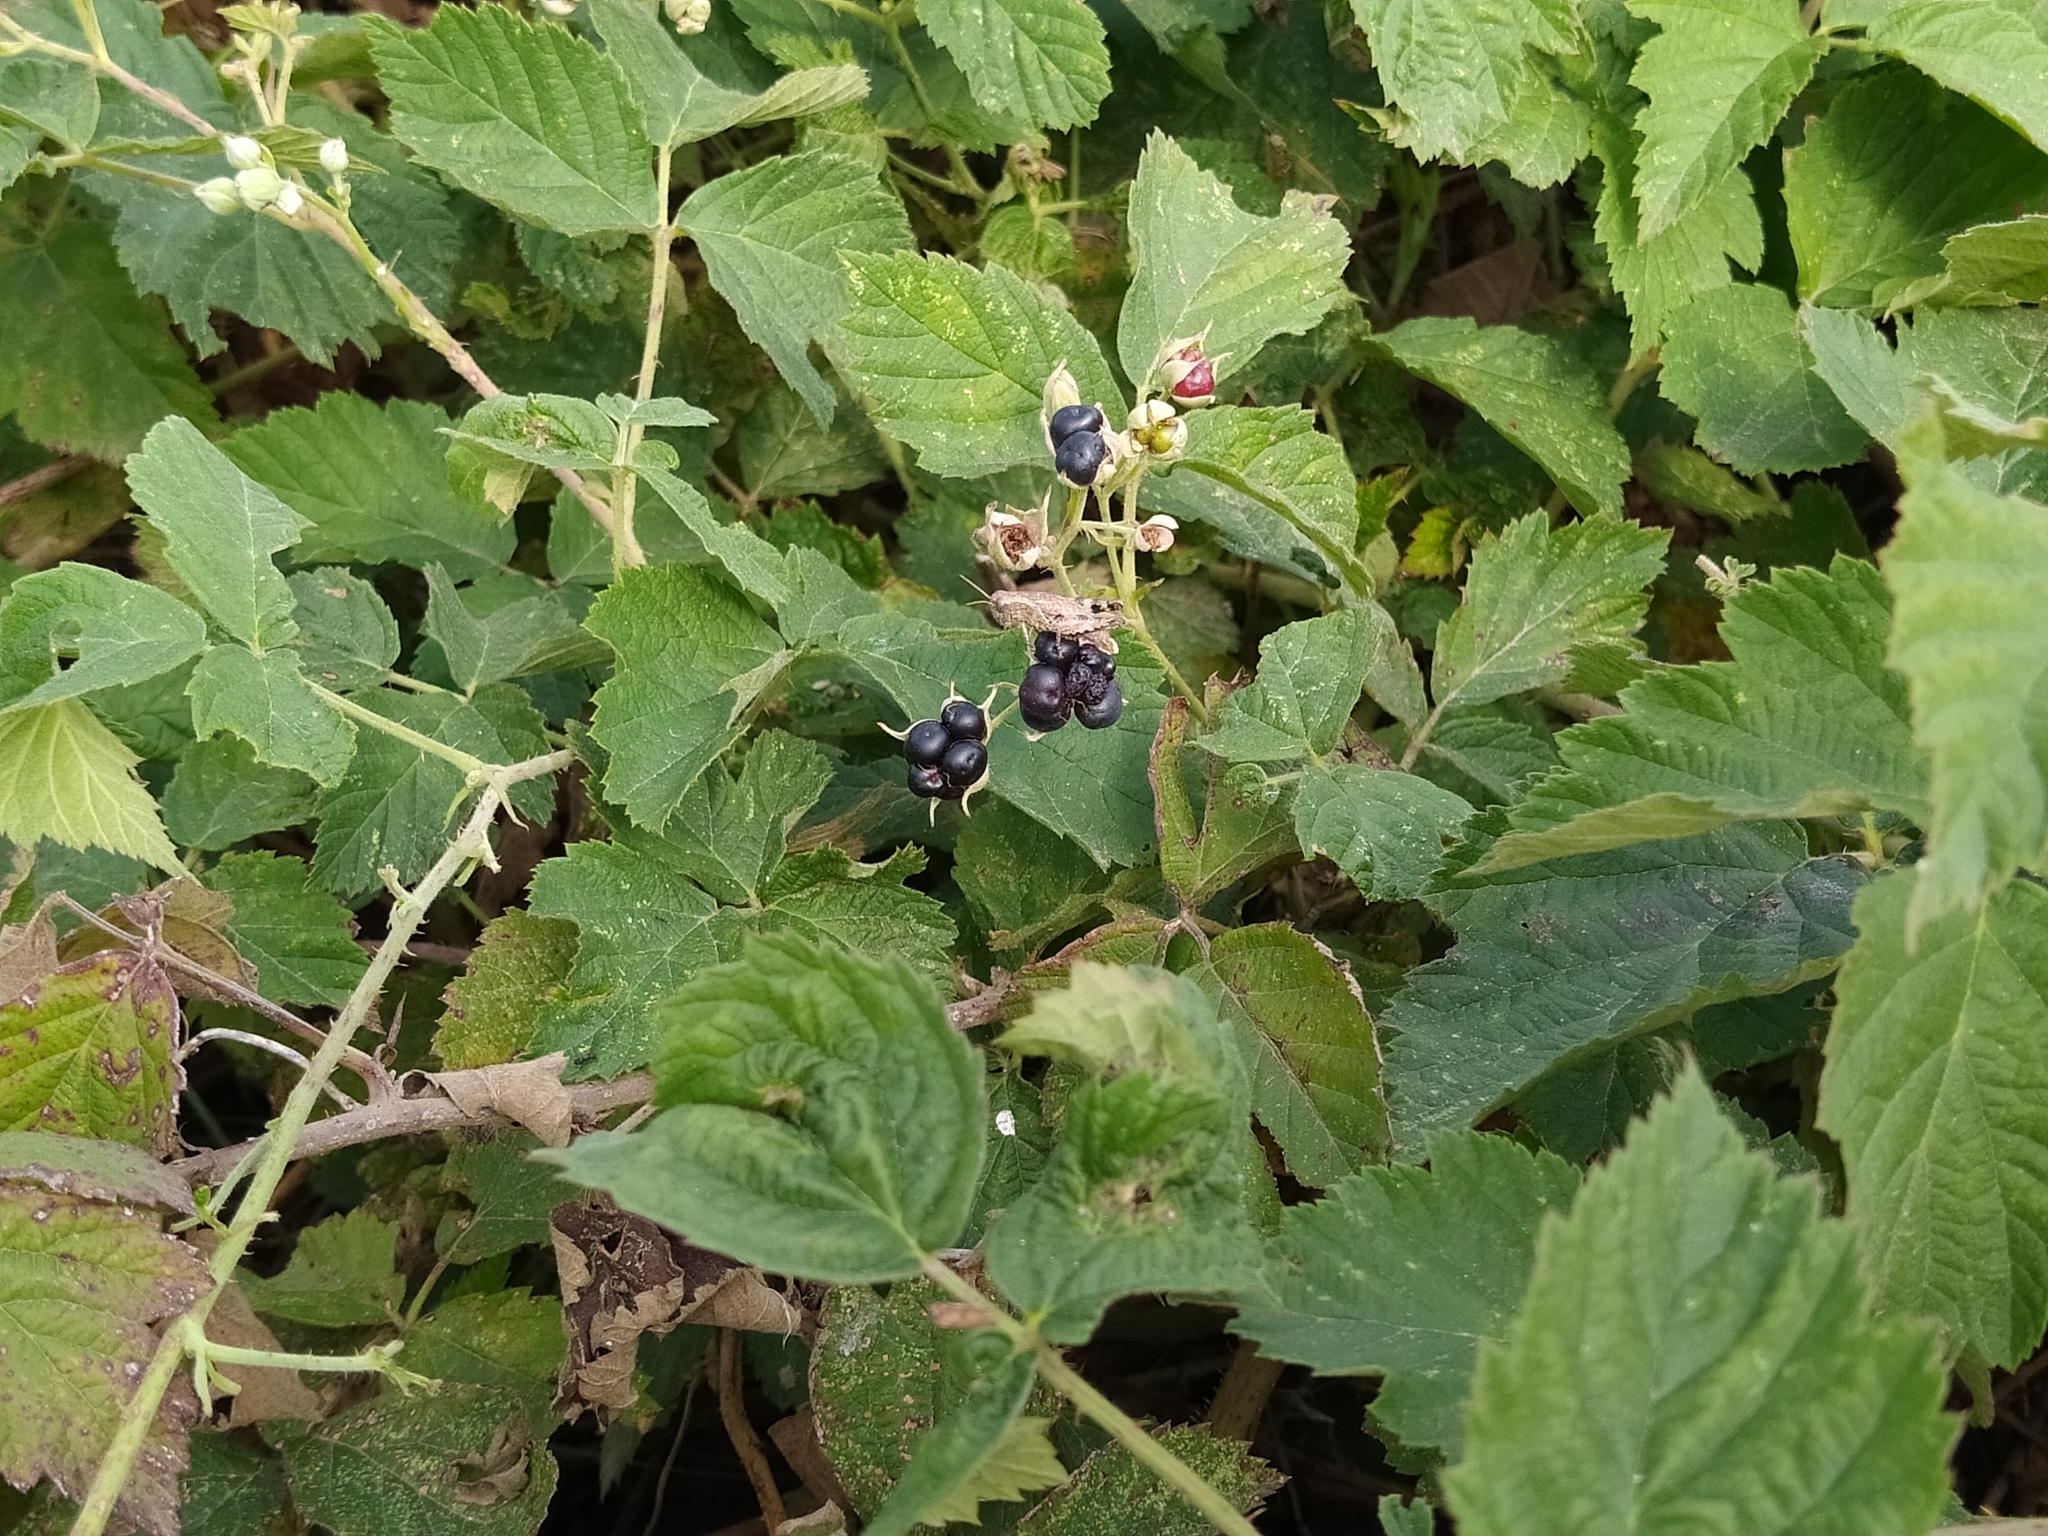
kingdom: Animalia
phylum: Arthropoda
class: Insecta
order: Orthoptera
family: Acrididae
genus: Pezotettix
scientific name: Pezotettix giornae
